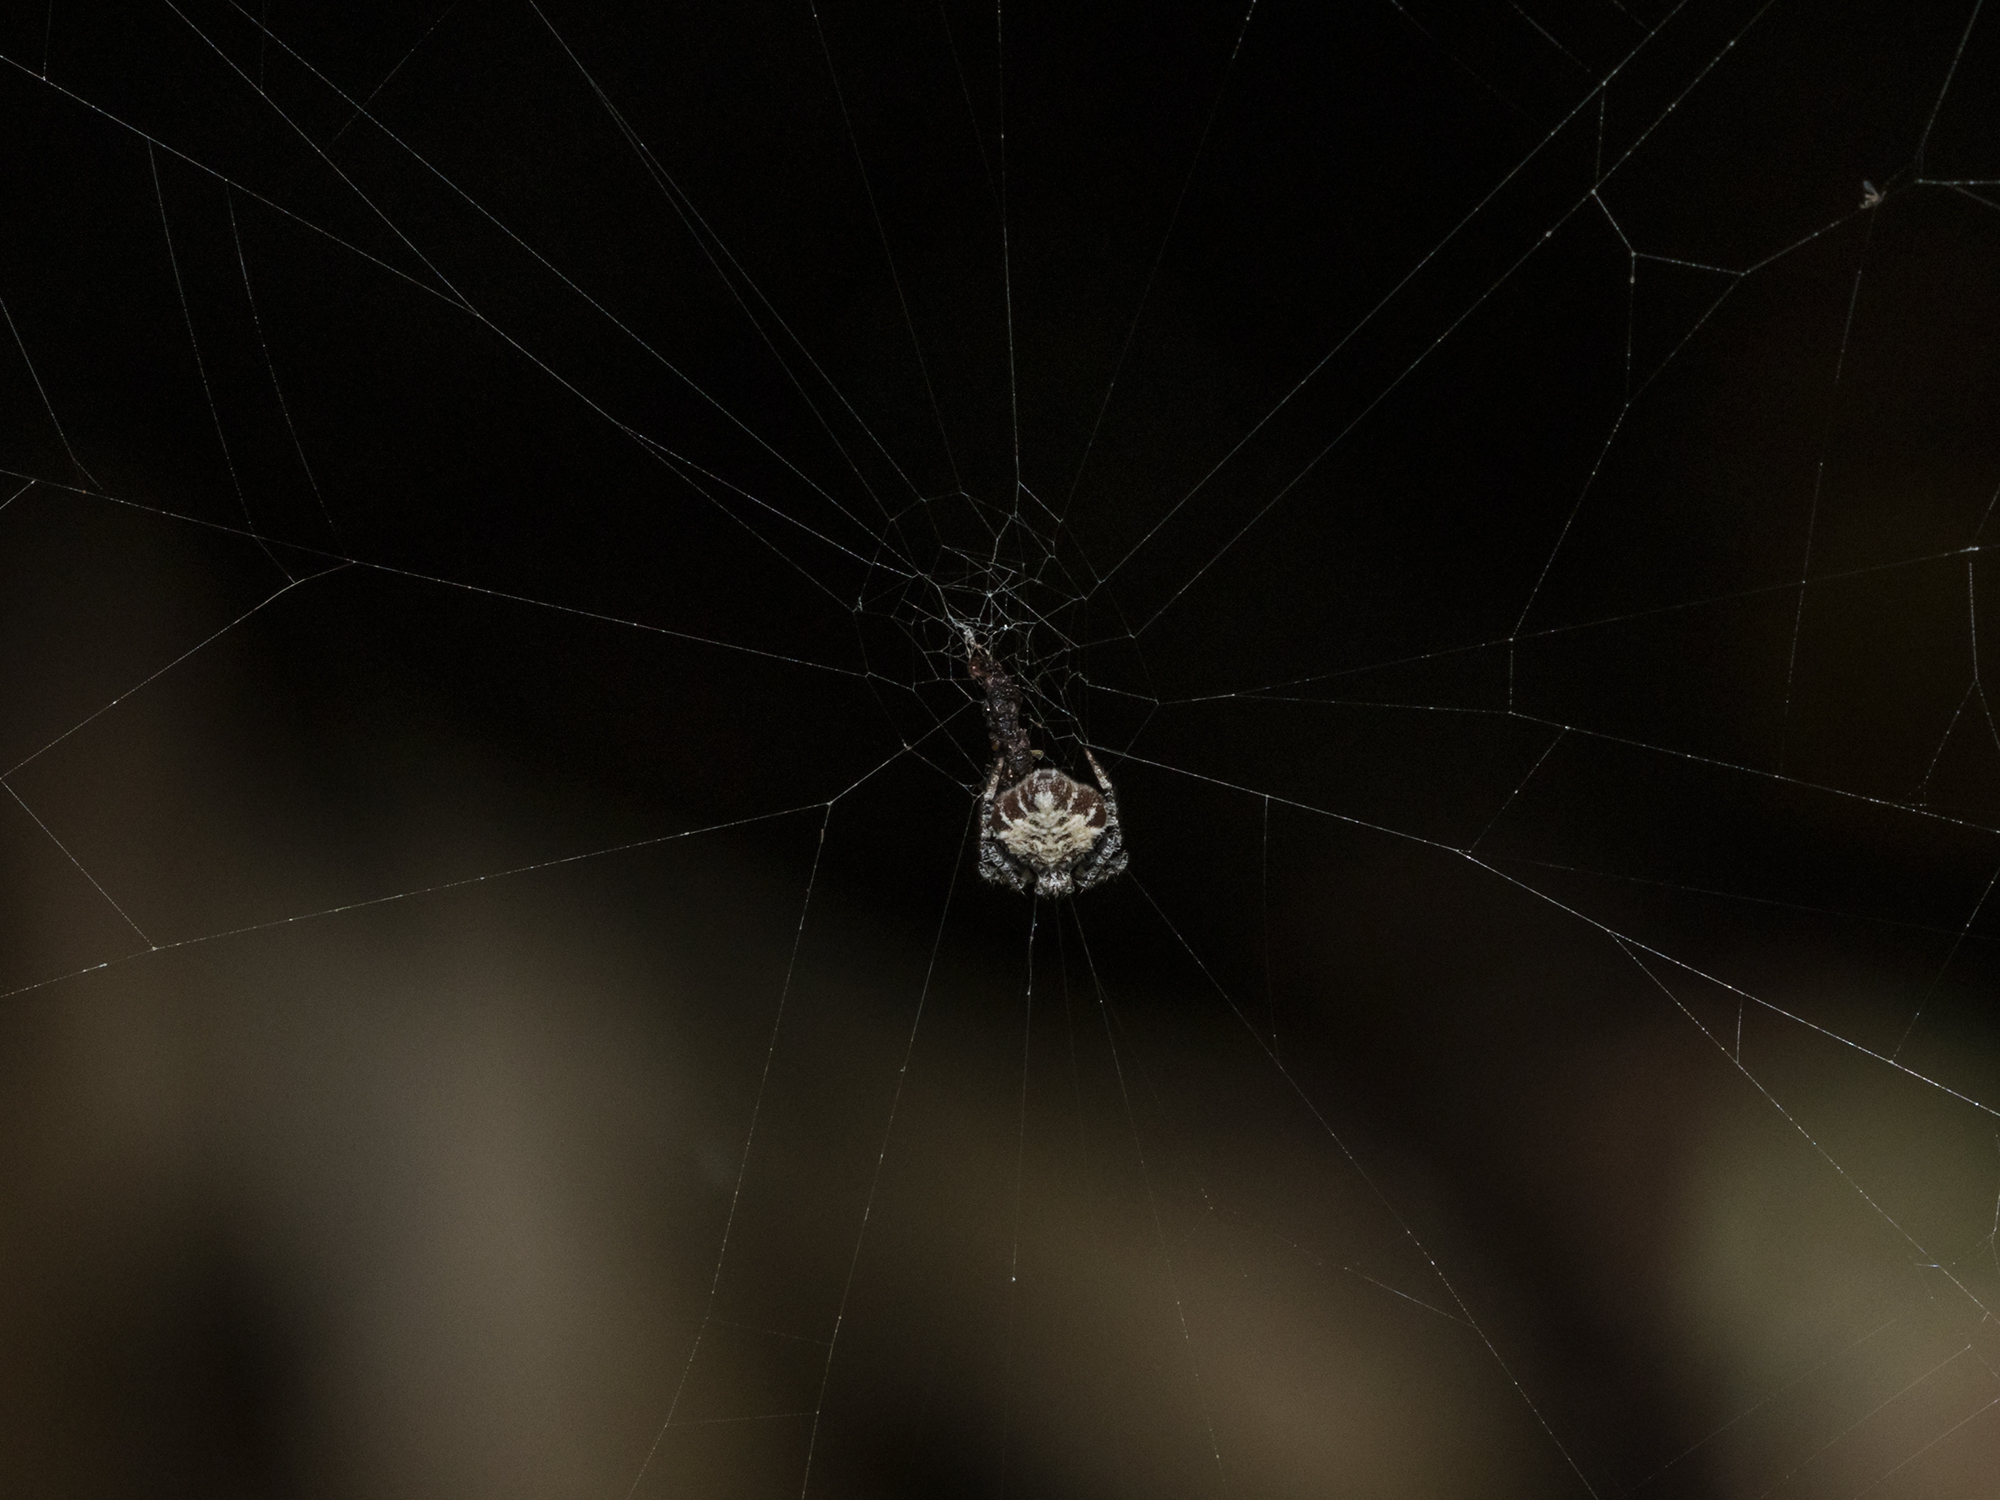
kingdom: Animalia
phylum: Arthropoda
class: Arachnida
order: Araneae
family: Araneidae
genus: Eriovixia
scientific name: Eriovixia laglaizei
